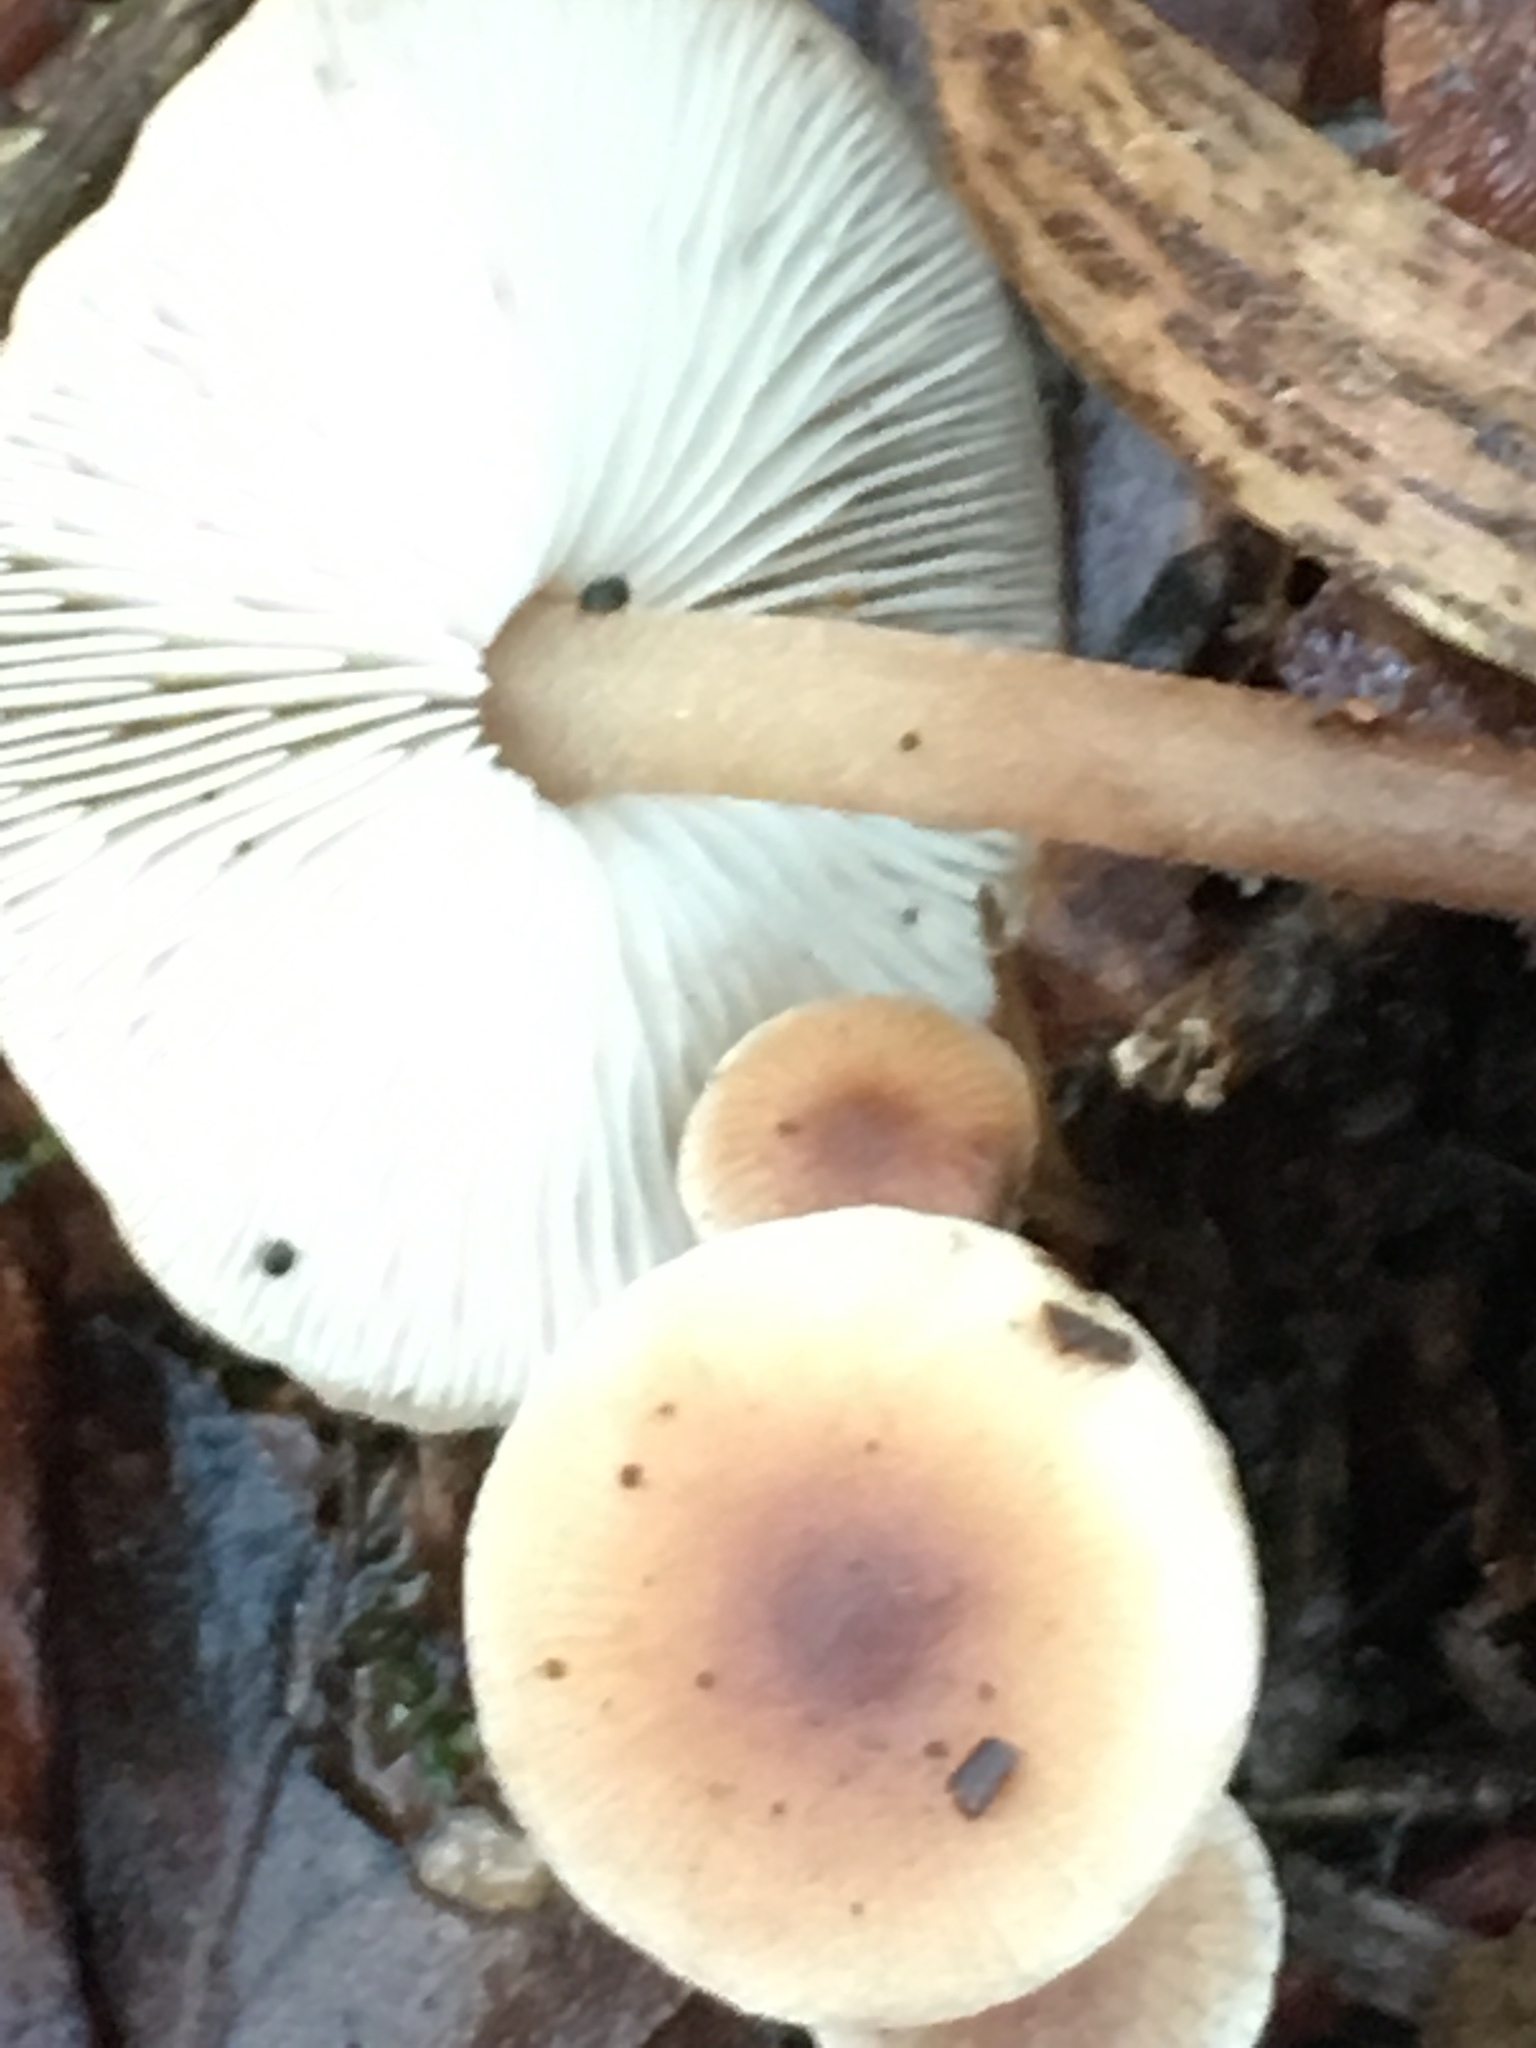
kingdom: Fungi
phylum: Basidiomycota
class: Agaricomycetes
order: Agaricales
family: Omphalotaceae
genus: Rhodocollybia
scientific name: Rhodocollybia butyracea
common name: Butter cap
